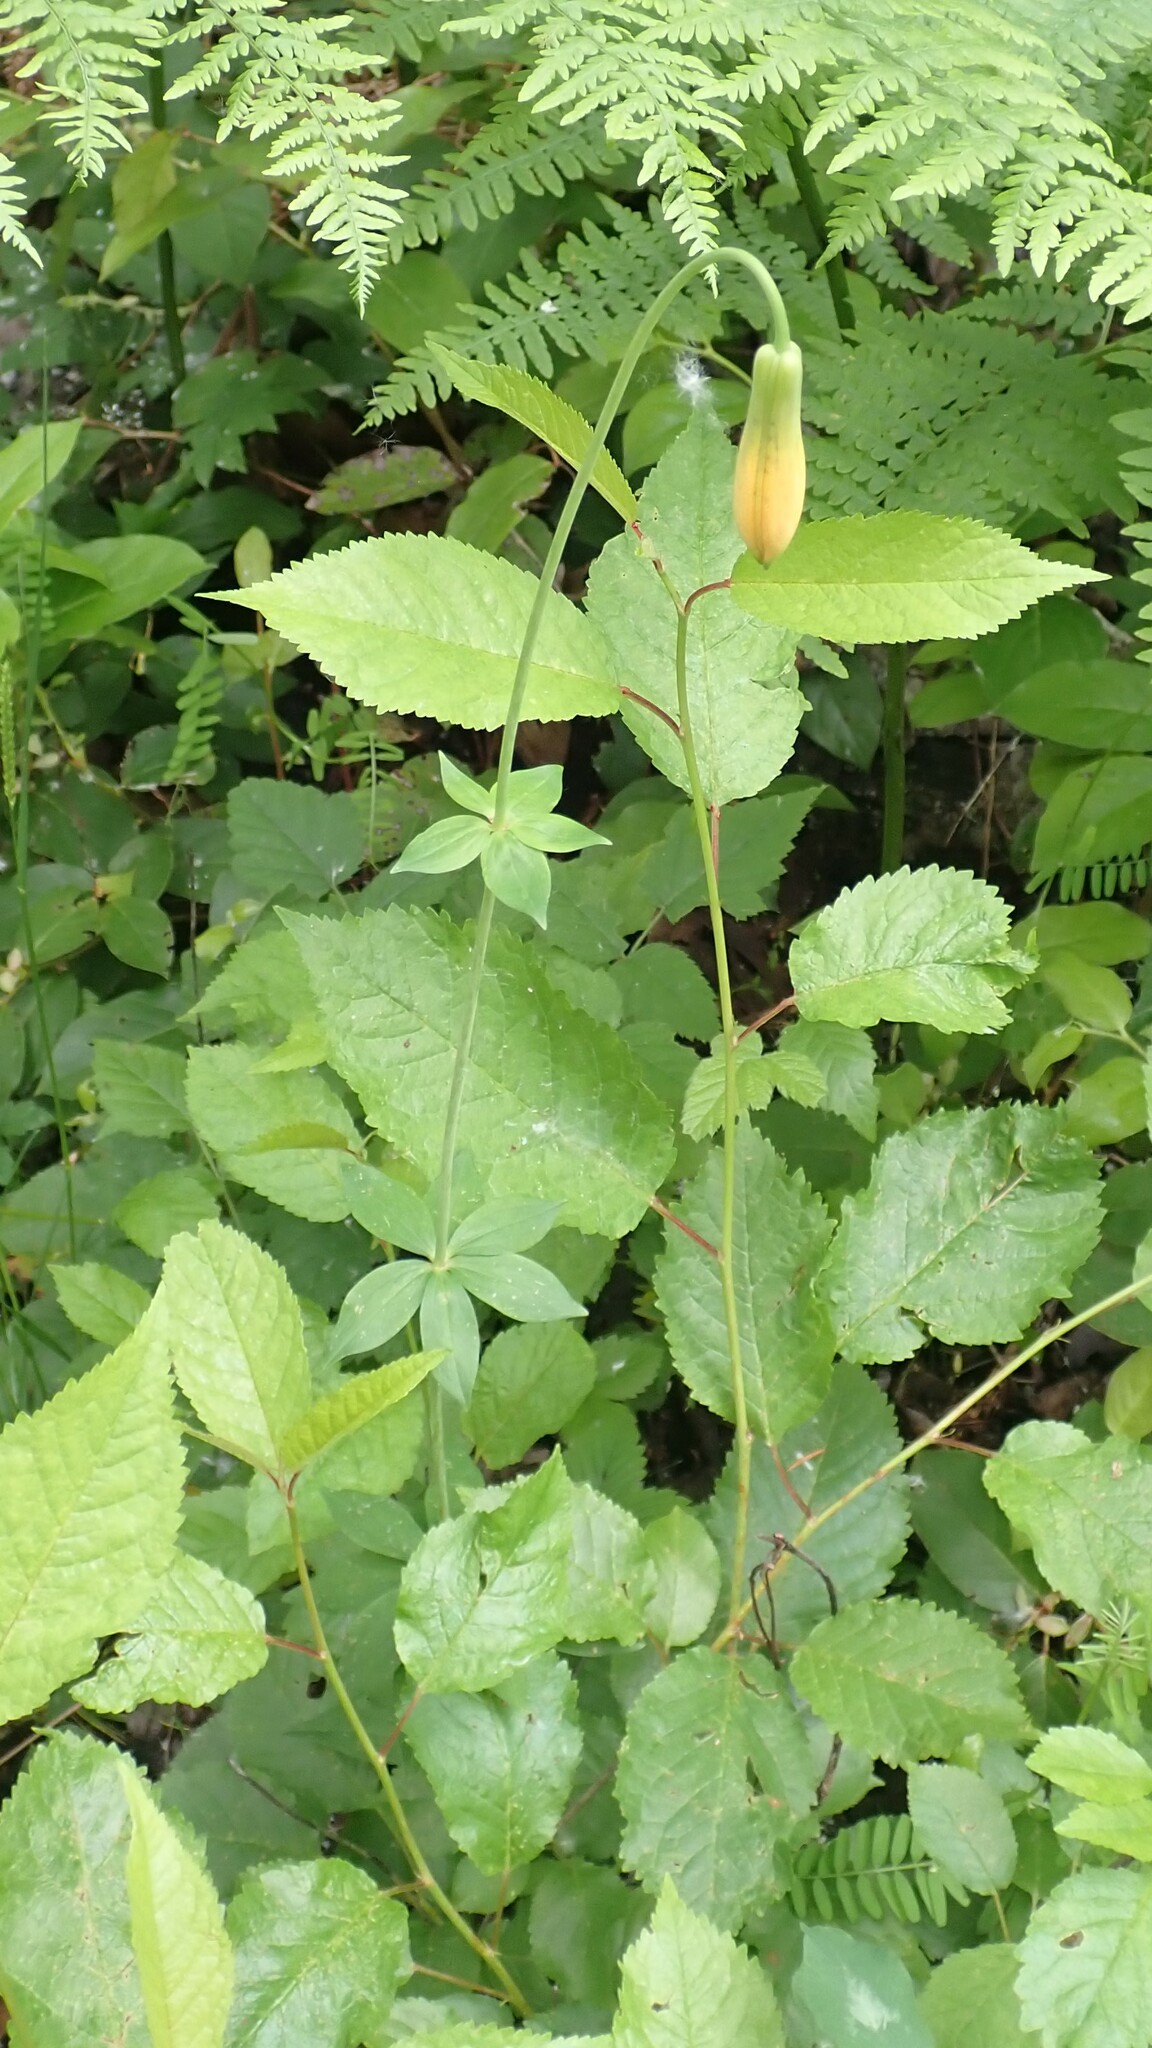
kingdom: Plantae
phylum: Tracheophyta
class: Liliopsida
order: Liliales
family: Liliaceae
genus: Lilium
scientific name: Lilium columbianum
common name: Columbia lily
